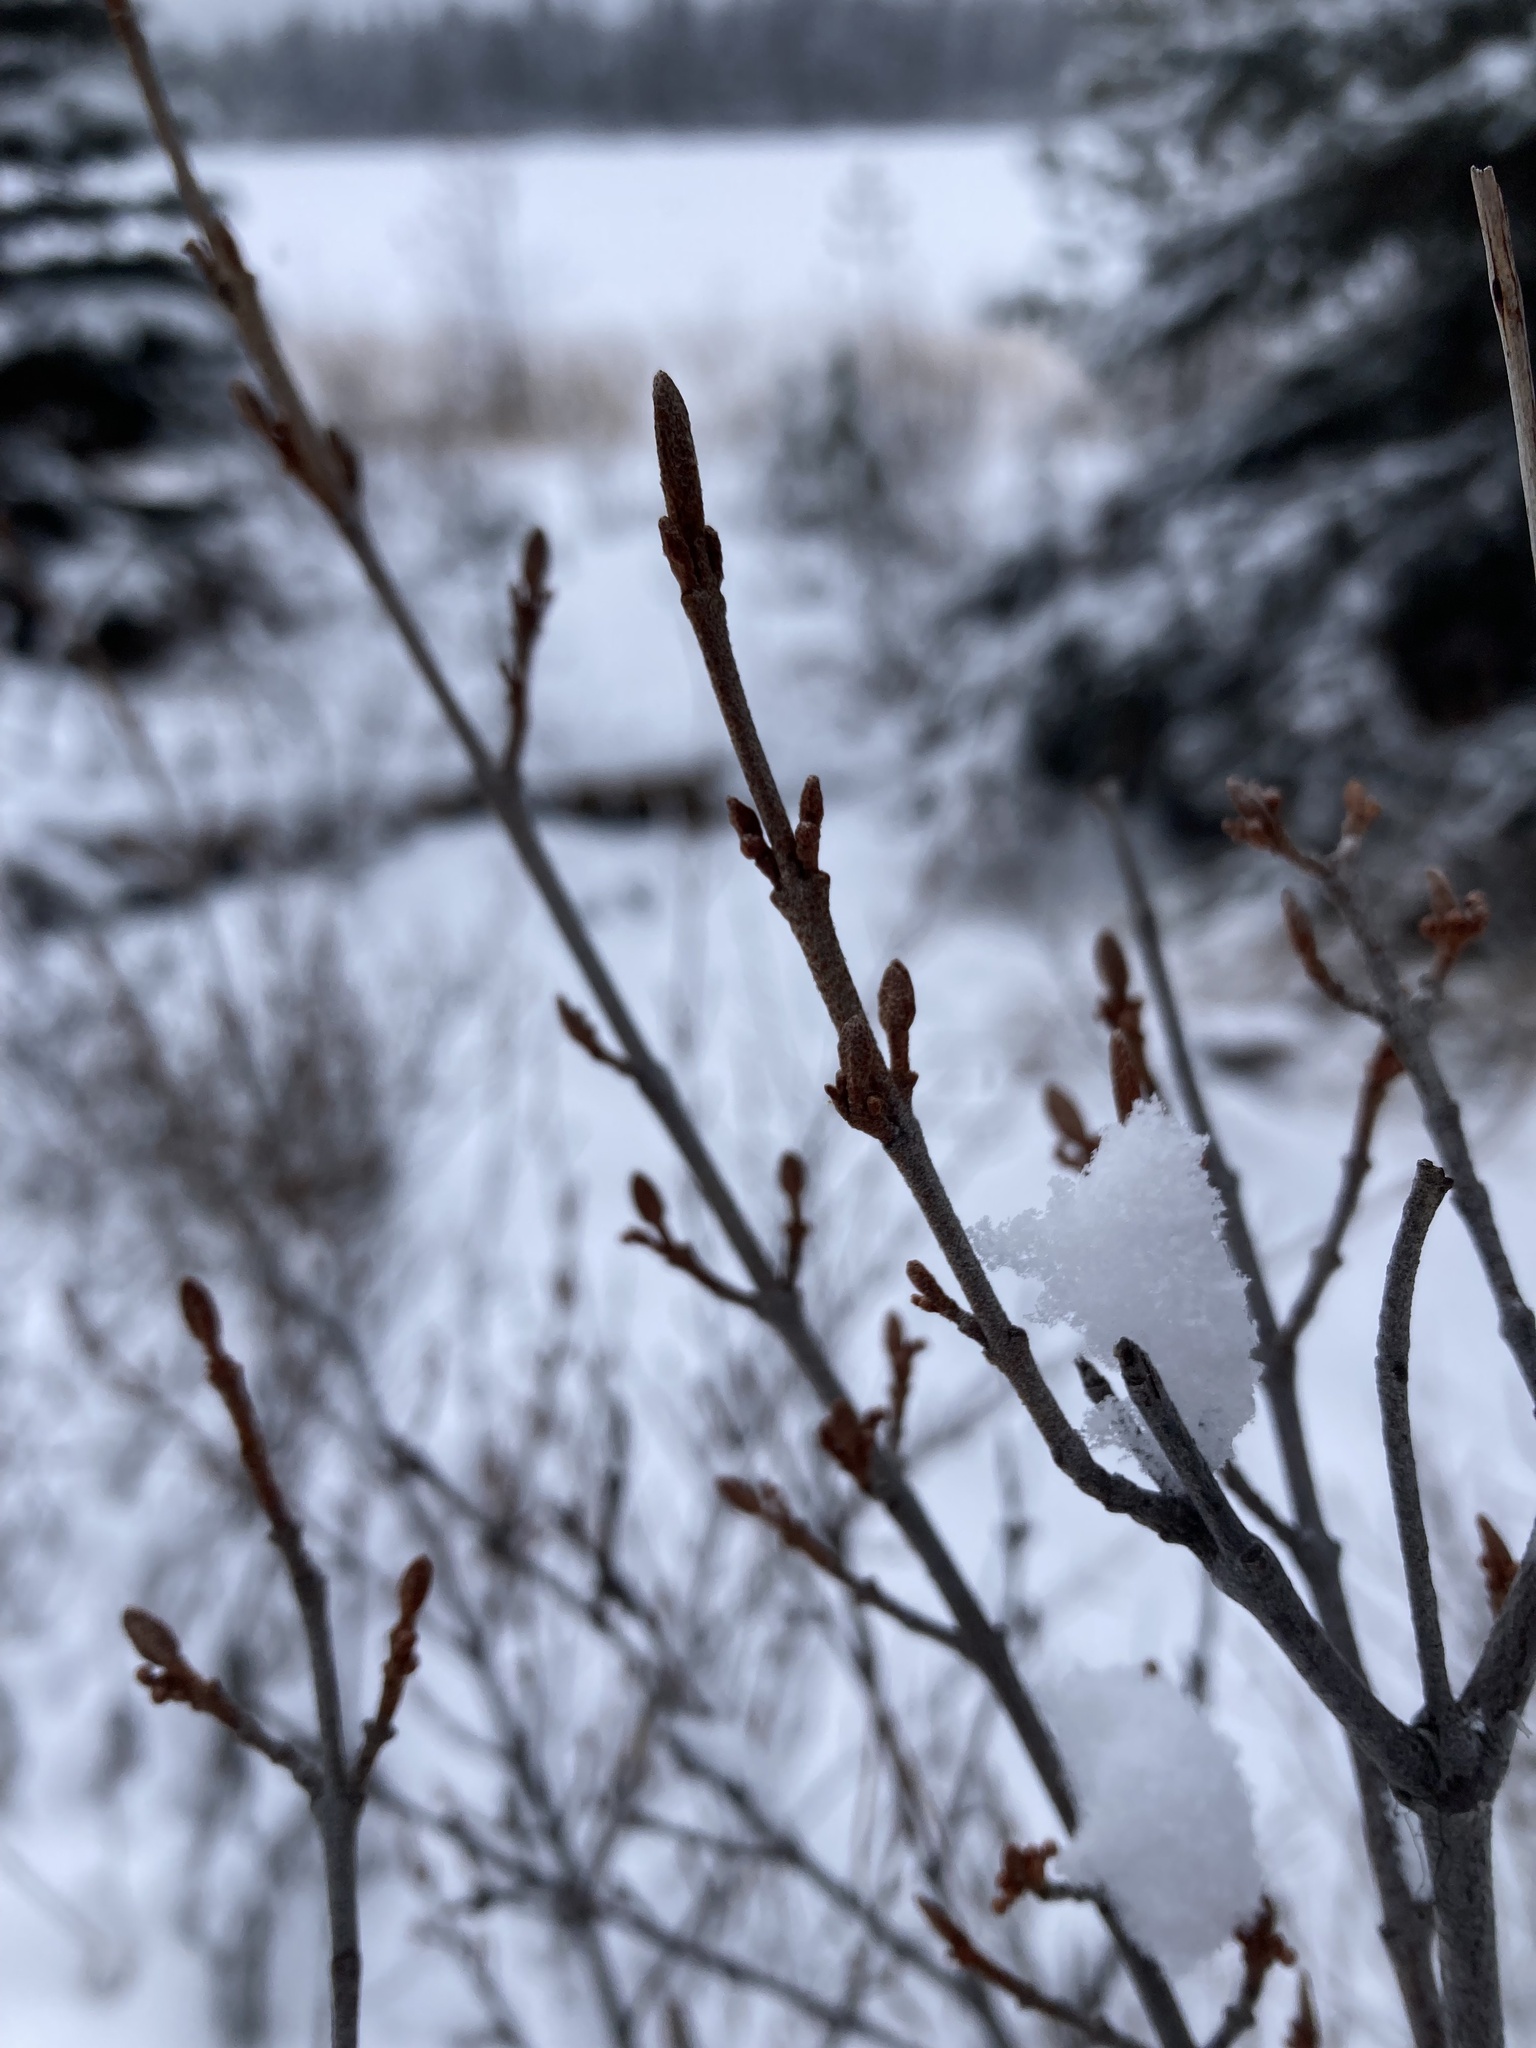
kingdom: Plantae
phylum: Tracheophyta
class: Magnoliopsida
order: Rosales
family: Elaeagnaceae
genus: Shepherdia
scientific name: Shepherdia canadensis
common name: Soapberry
